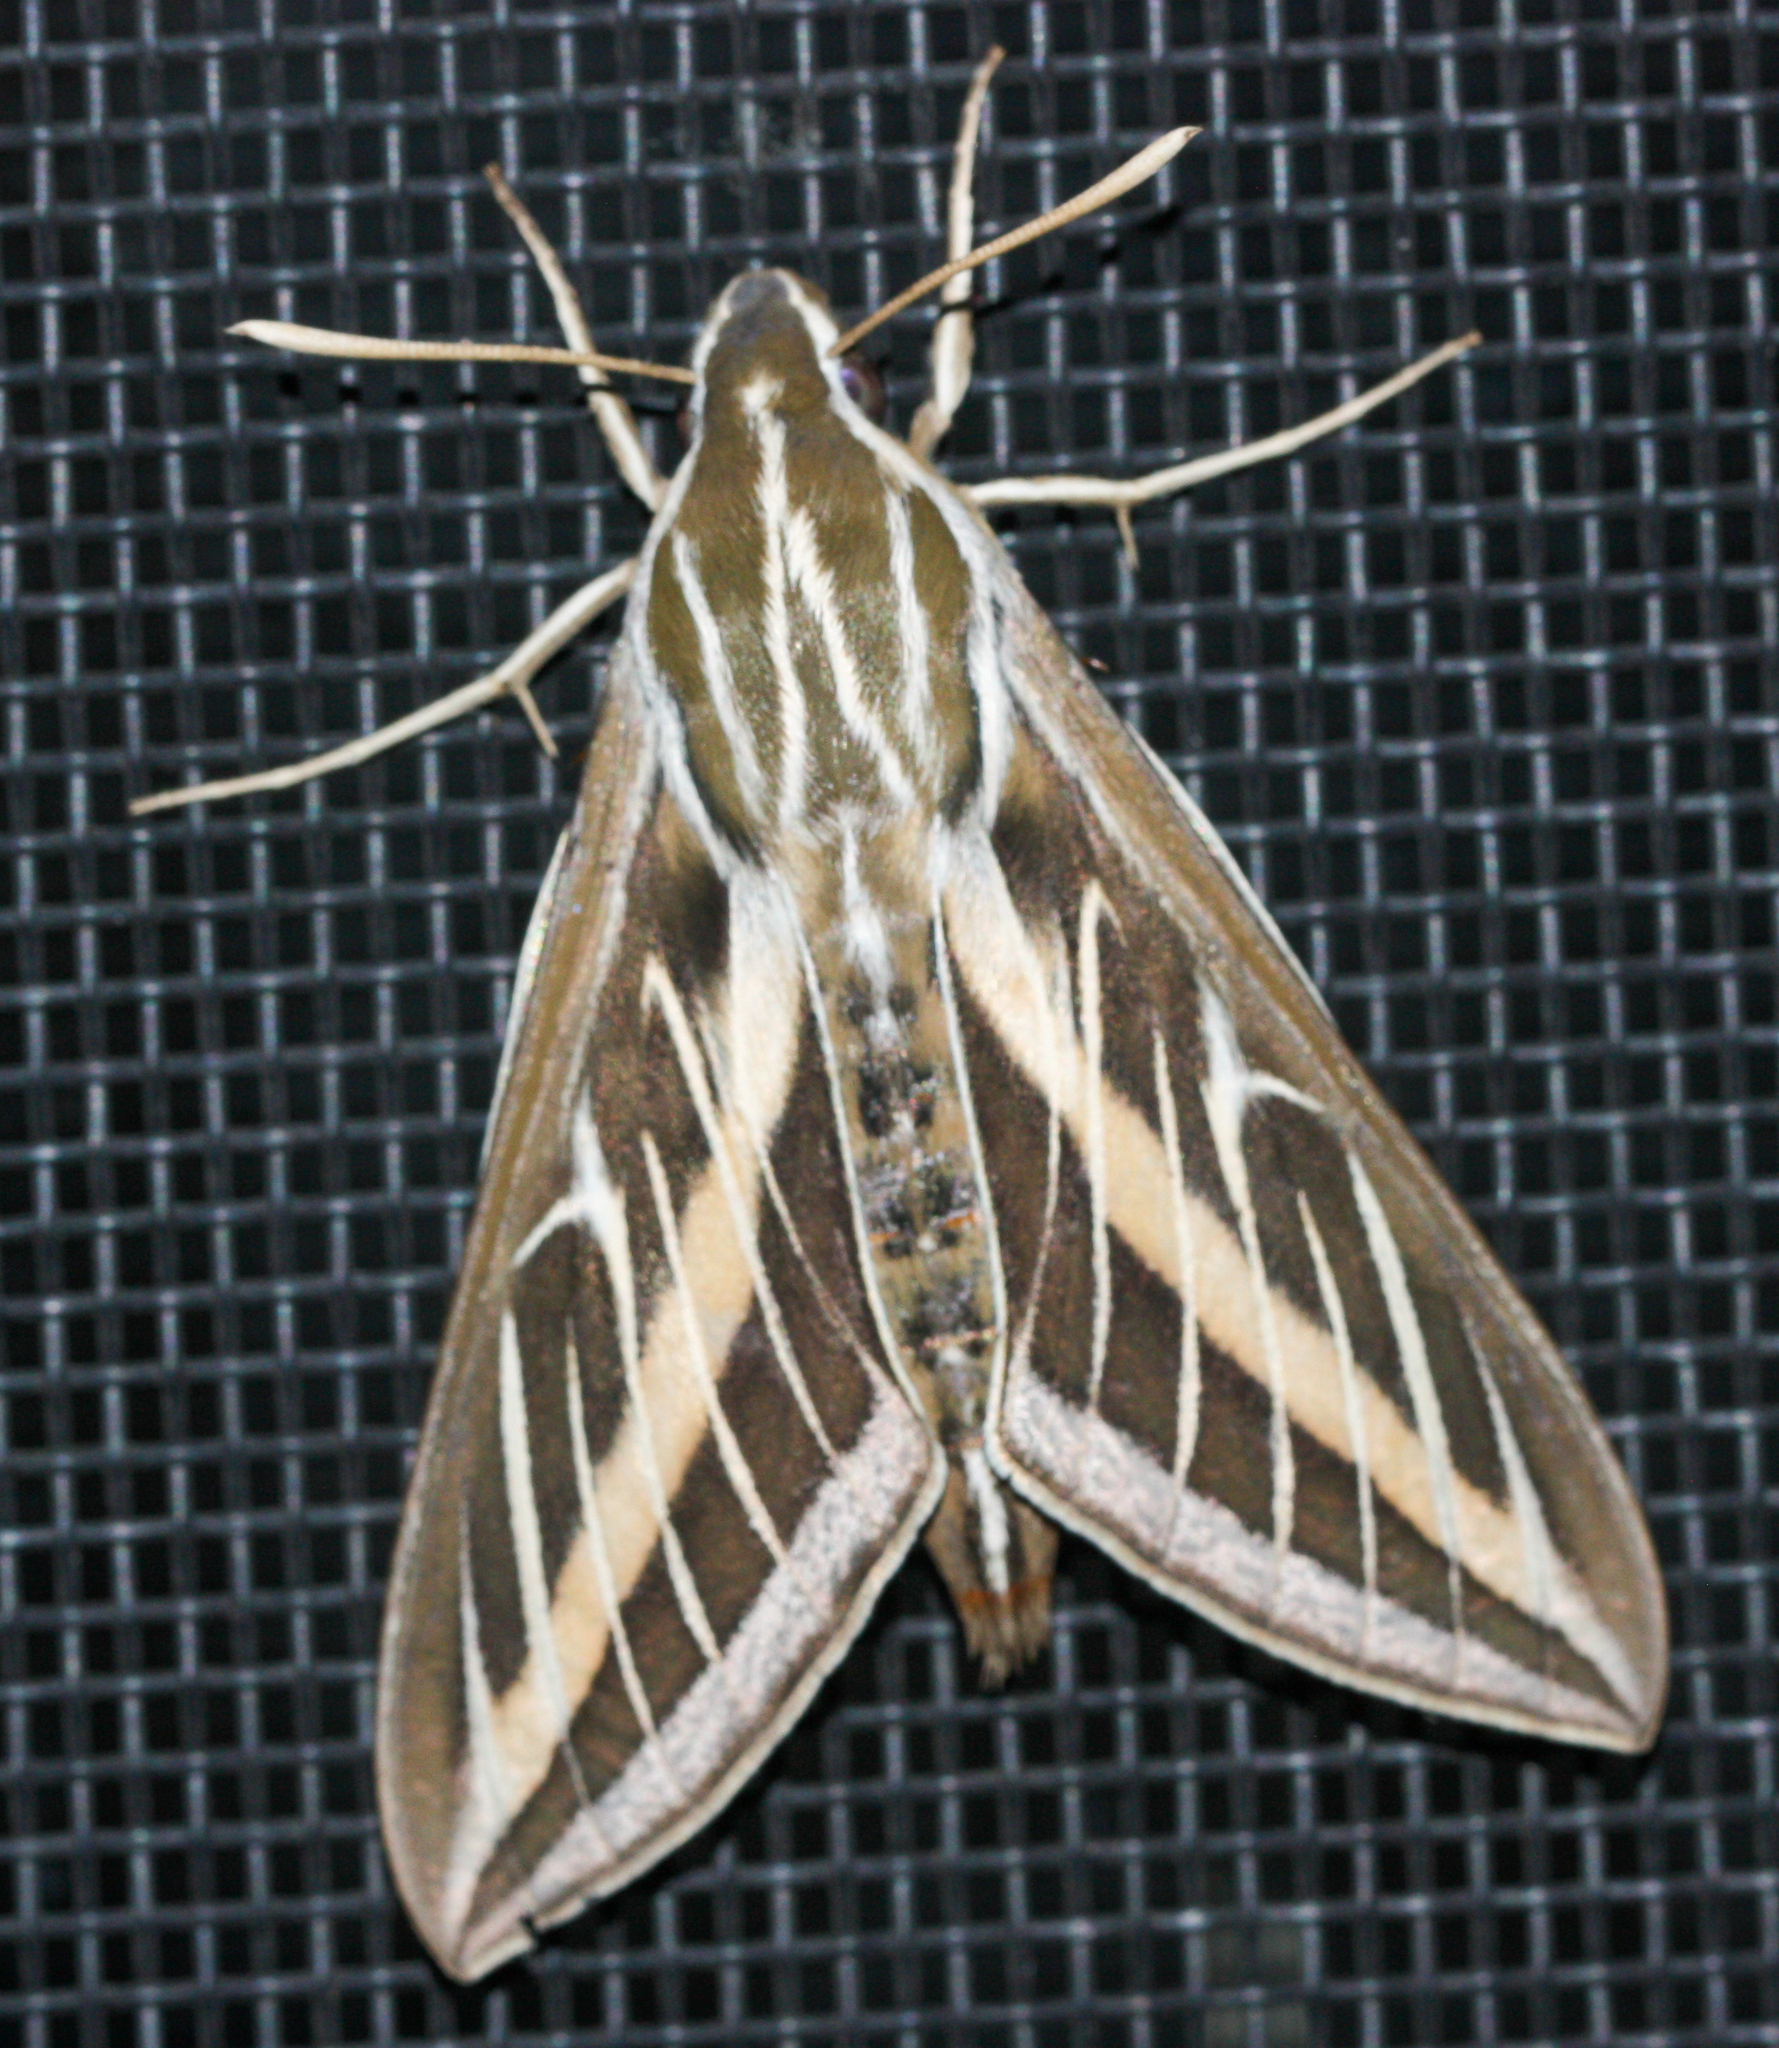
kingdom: Animalia
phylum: Arthropoda
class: Insecta
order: Lepidoptera
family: Sphingidae
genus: Hyles
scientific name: Hyles lineata
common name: White-lined sphinx
